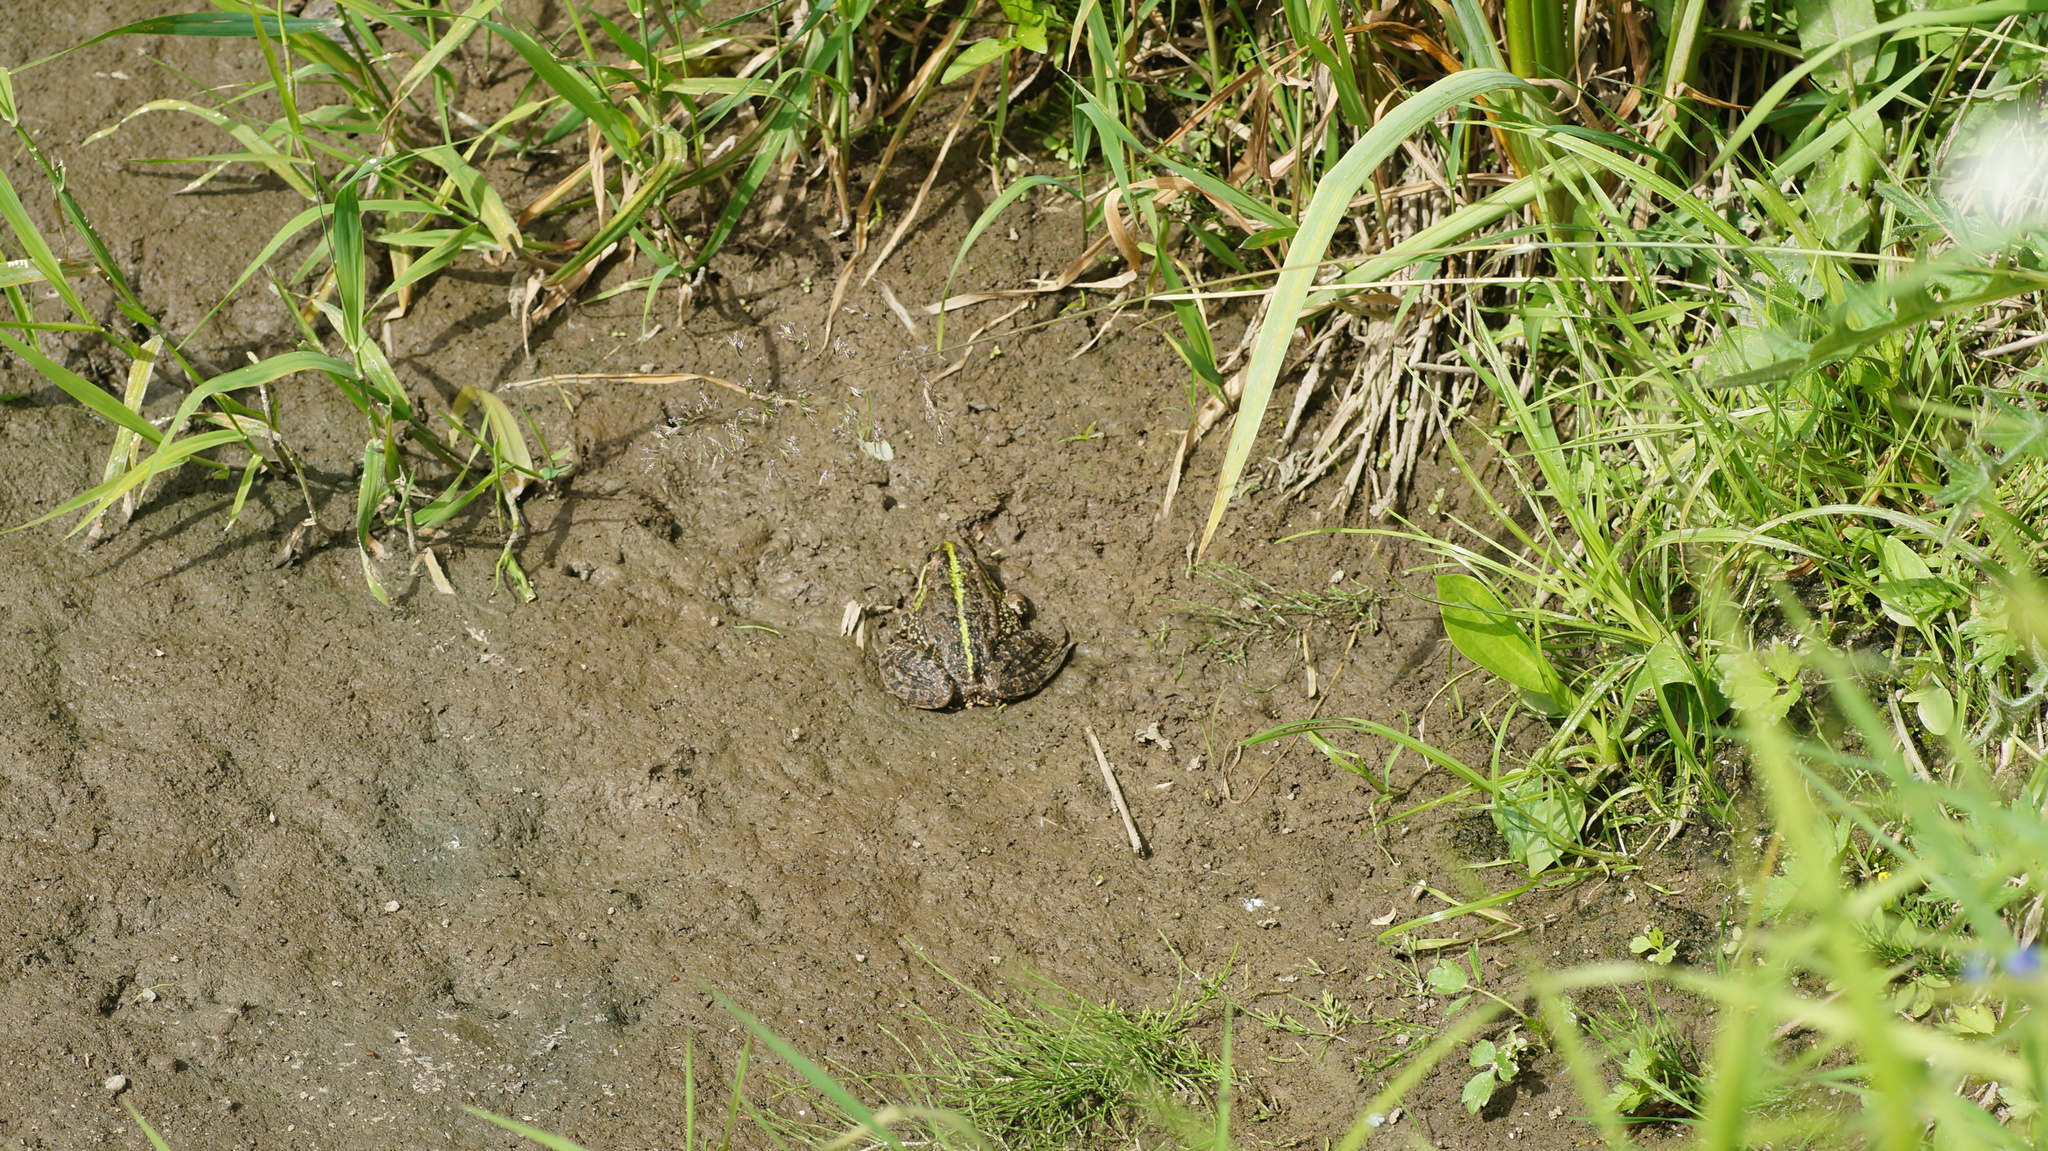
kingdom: Animalia
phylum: Chordata
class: Amphibia
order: Anura
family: Ranidae
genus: Pelophylax
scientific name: Pelophylax ridibundus
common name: Marsh frog
